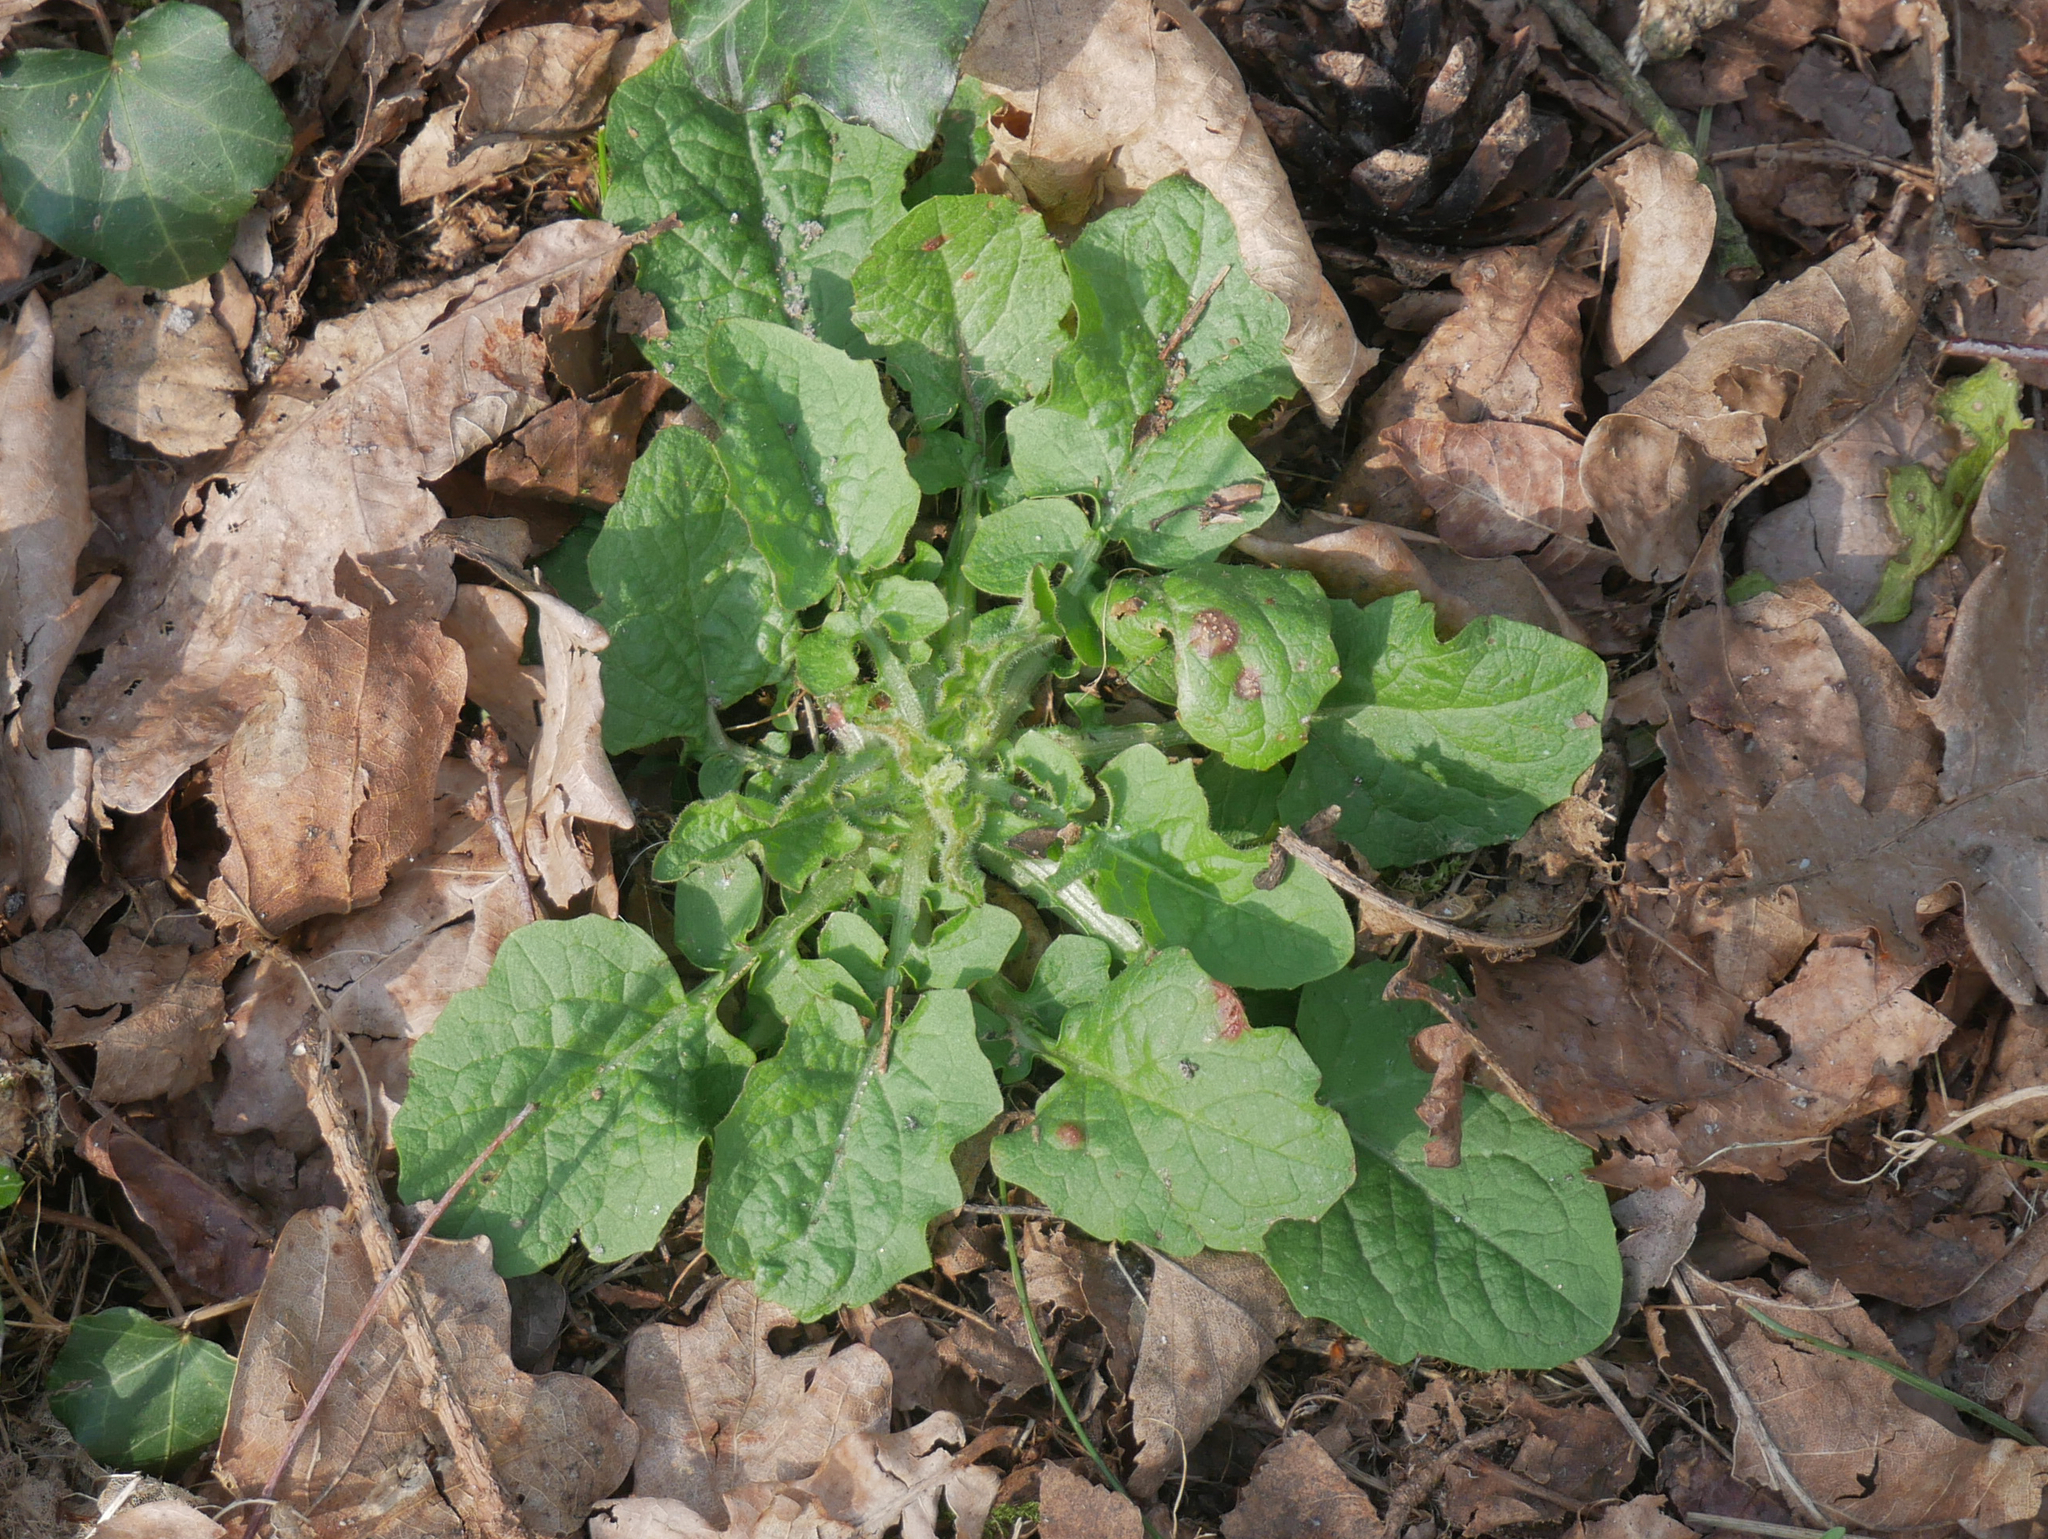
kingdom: Plantae
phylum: Tracheophyta
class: Magnoliopsida
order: Asterales
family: Asteraceae
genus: Lapsana
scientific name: Lapsana communis
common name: Nipplewort
